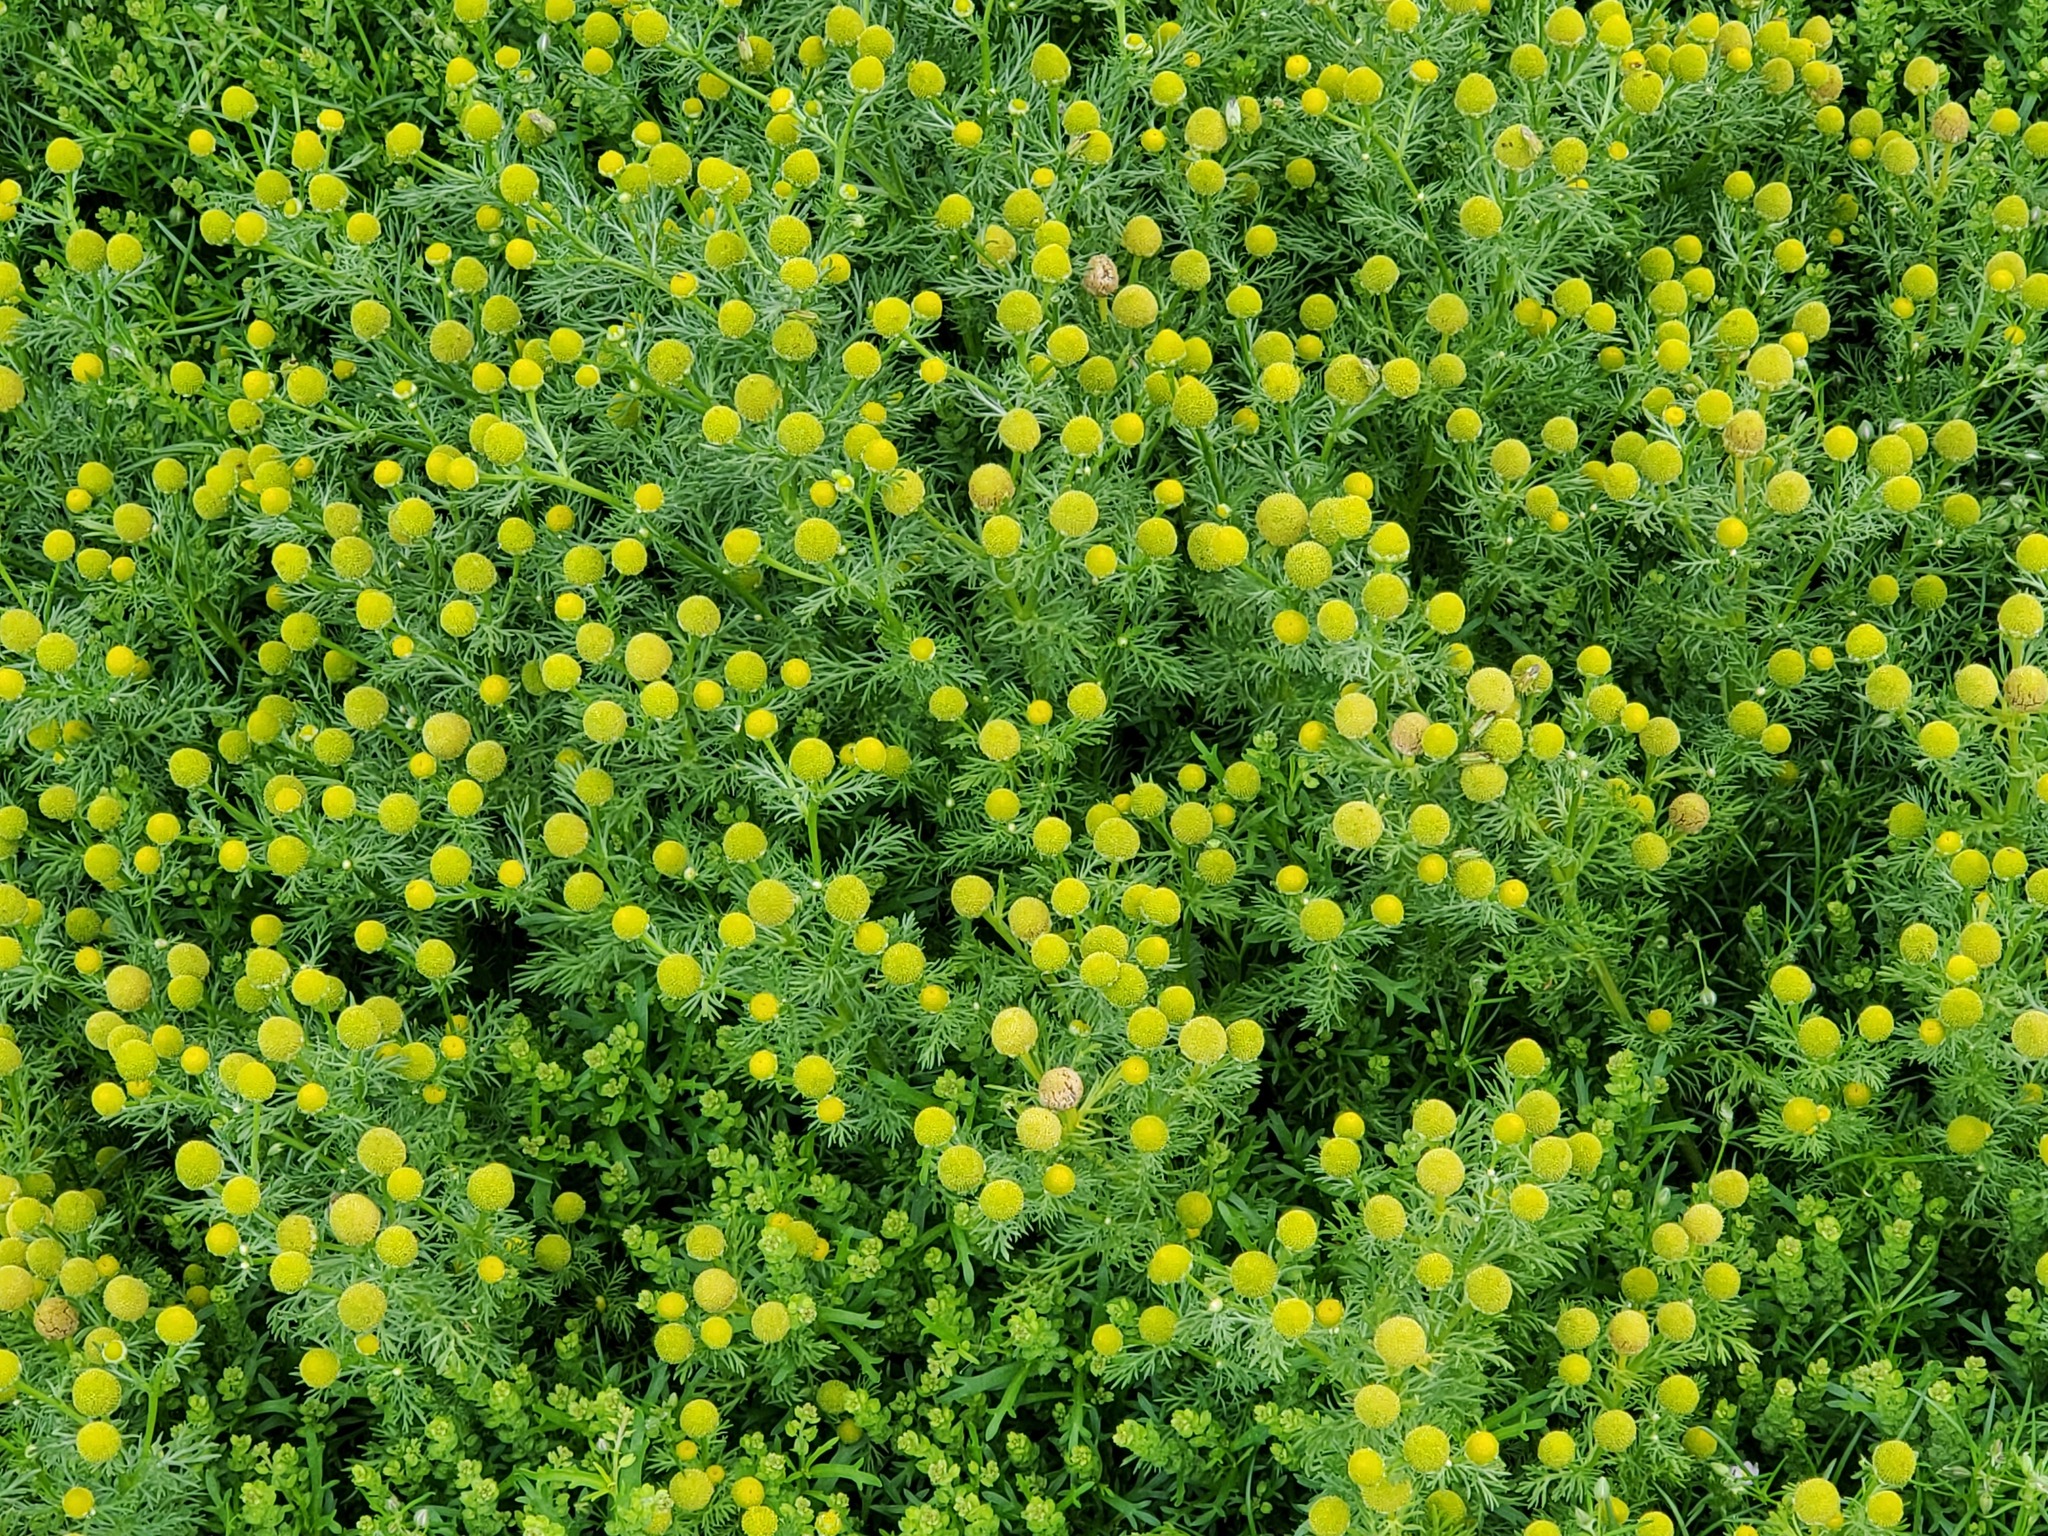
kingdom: Plantae
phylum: Tracheophyta
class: Magnoliopsida
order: Asterales
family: Asteraceae
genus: Matricaria
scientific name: Matricaria discoidea
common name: Disc mayweed
